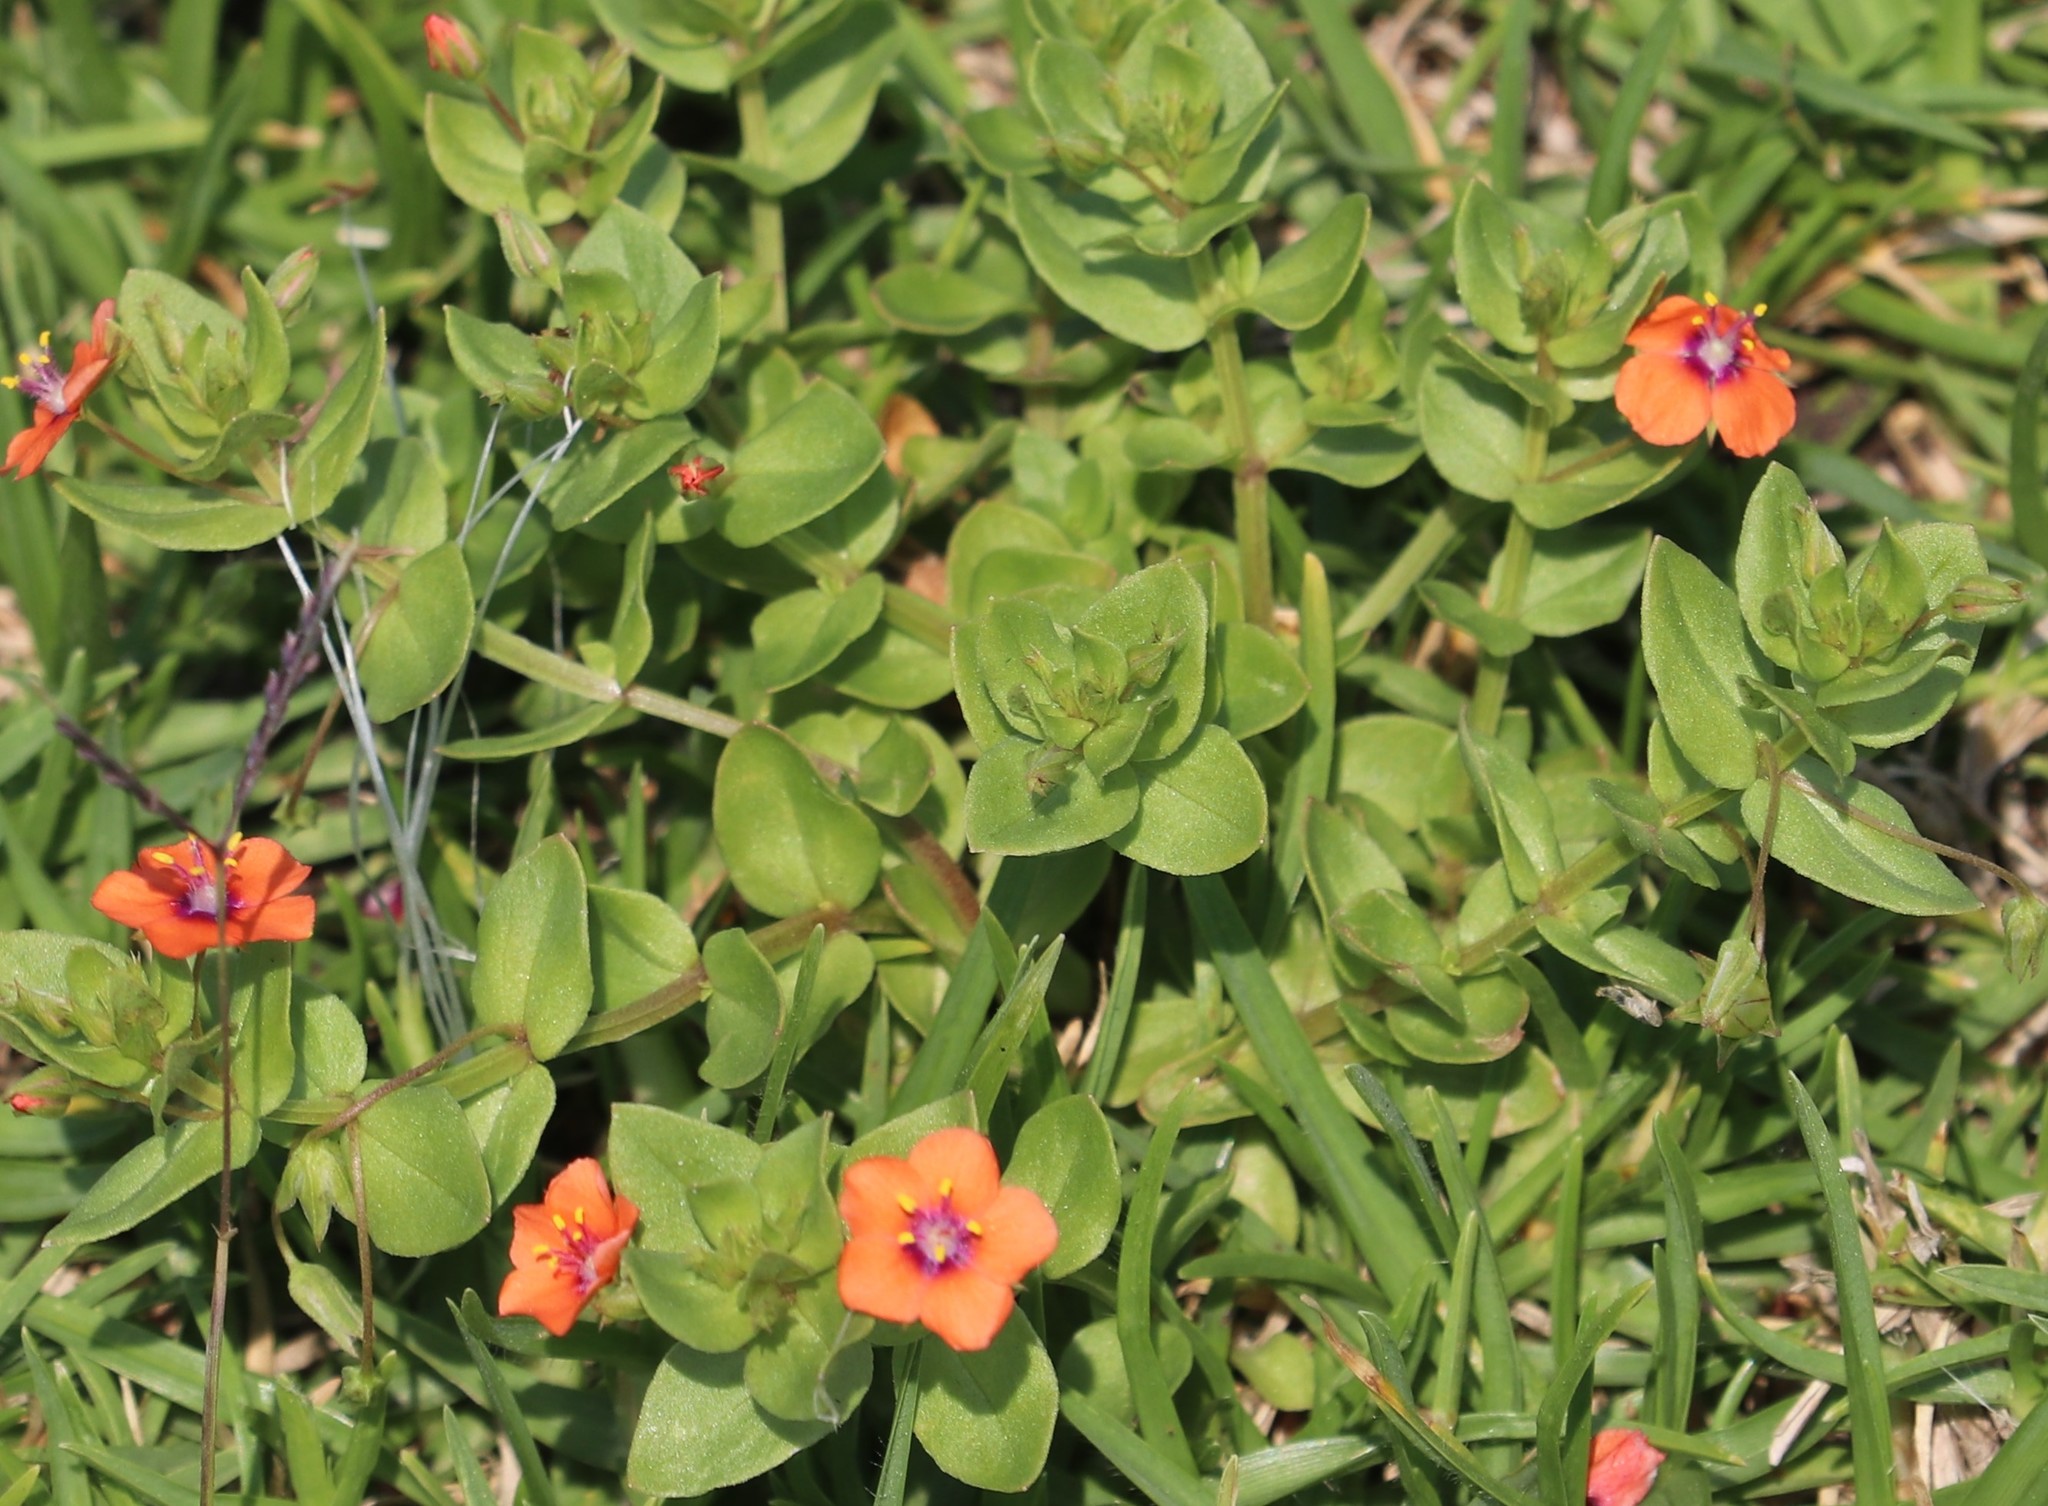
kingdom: Plantae
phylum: Tracheophyta
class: Magnoliopsida
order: Ericales
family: Primulaceae
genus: Lysimachia
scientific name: Lysimachia arvensis
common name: Scarlet pimpernel
